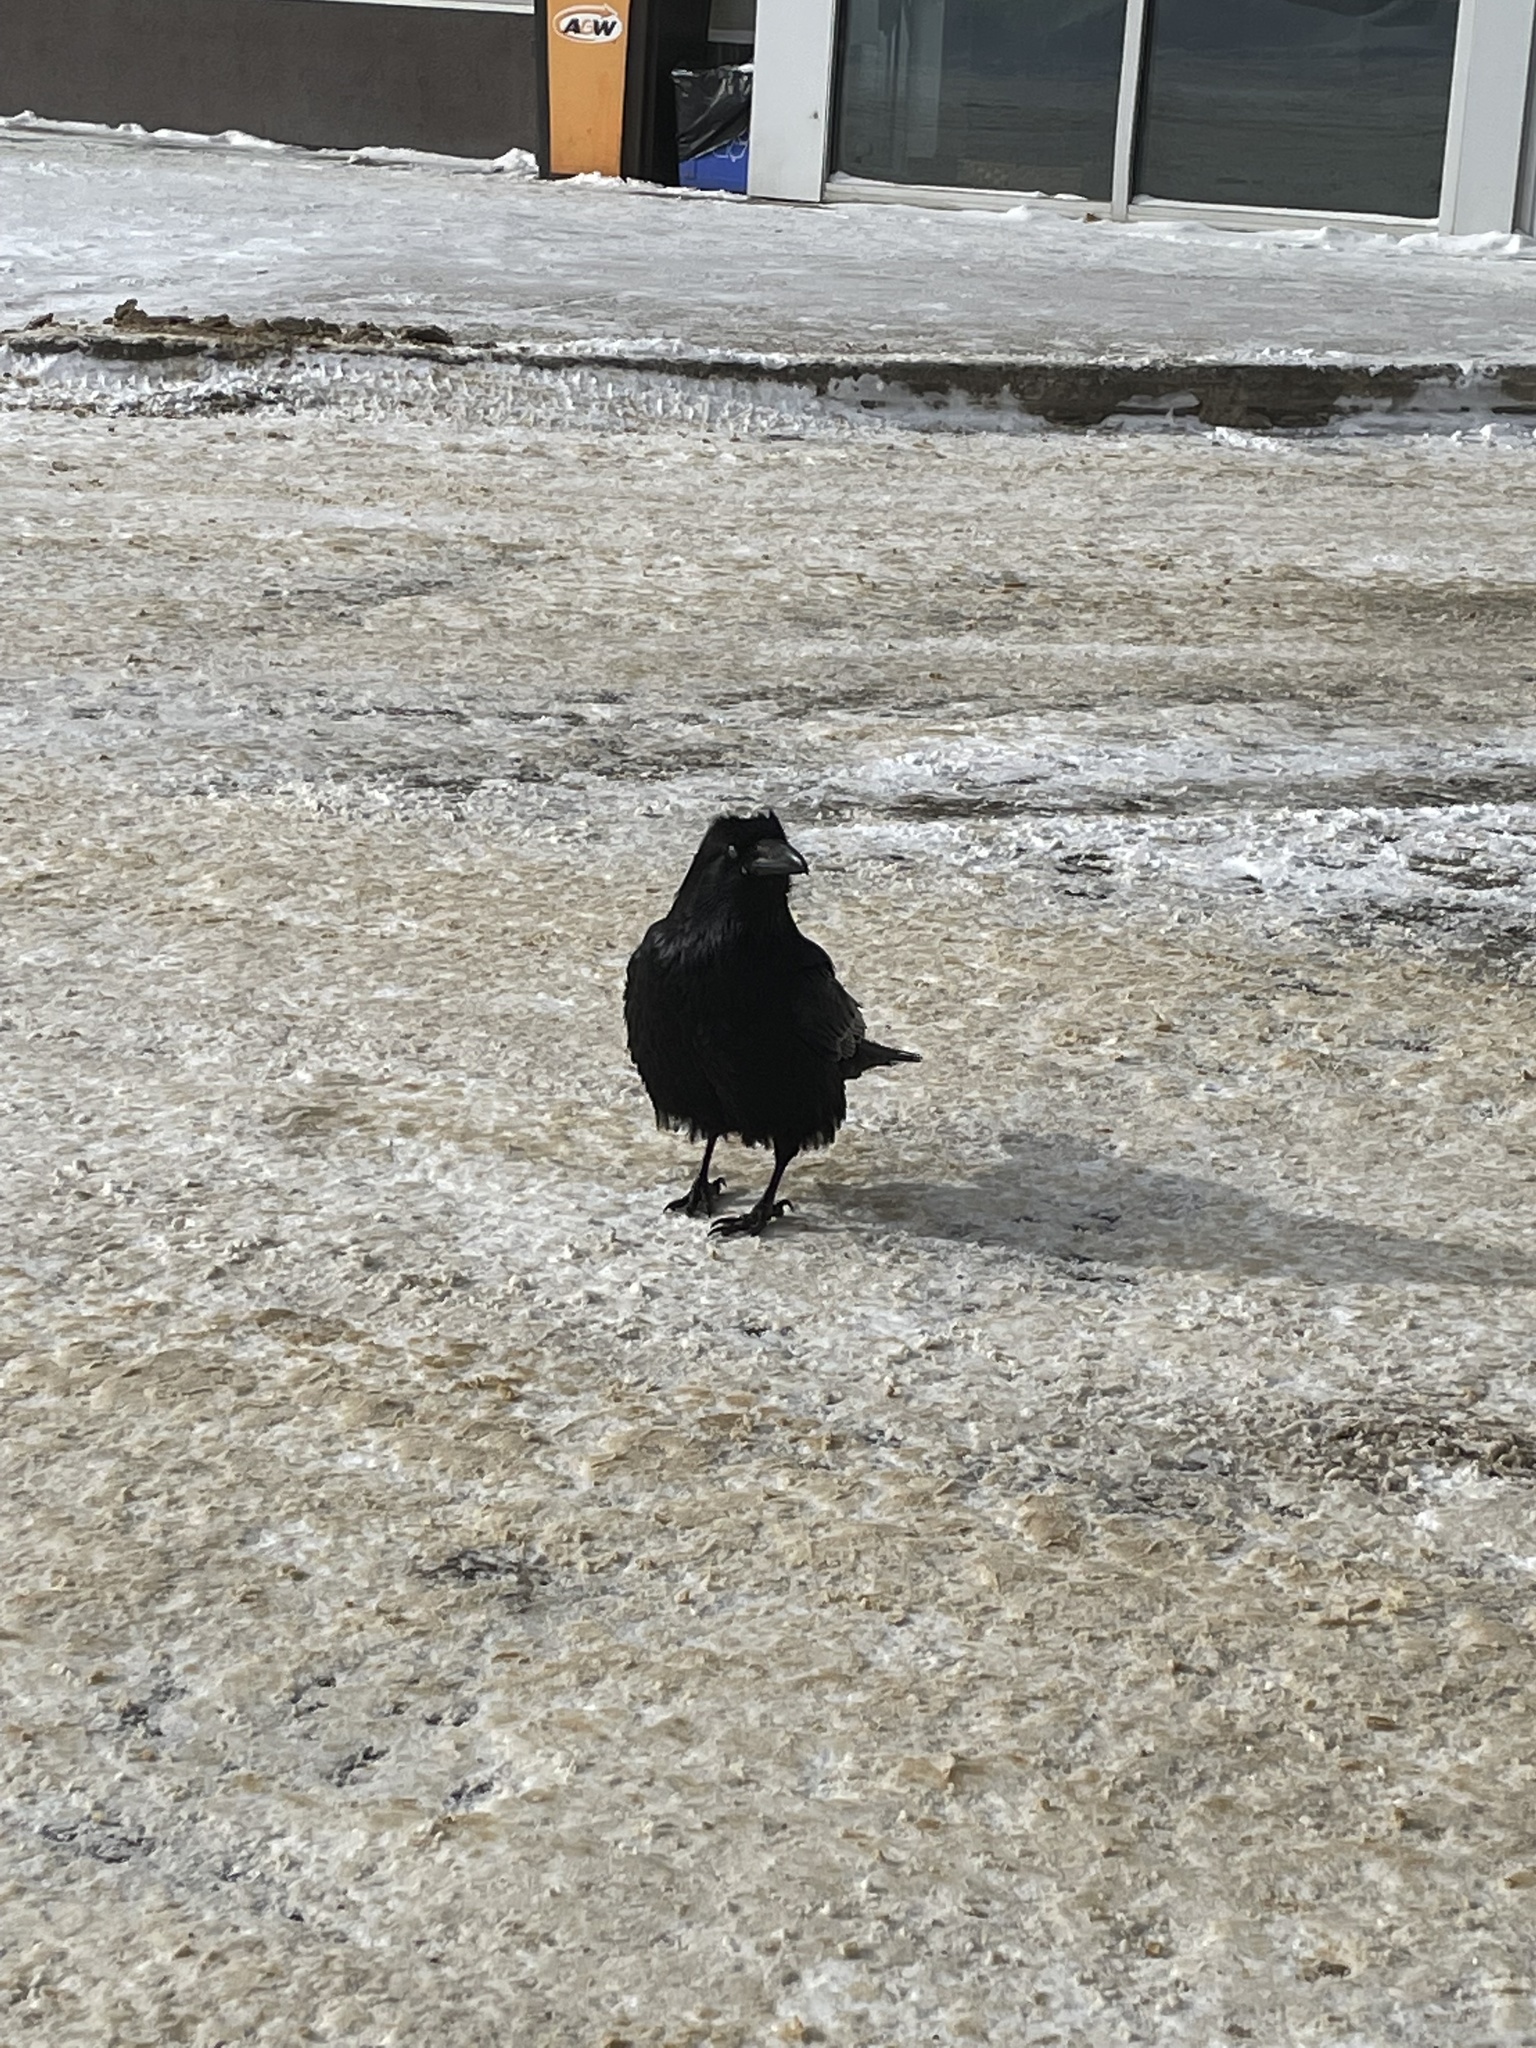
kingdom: Animalia
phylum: Chordata
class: Aves
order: Passeriformes
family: Corvidae
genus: Corvus
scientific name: Corvus corax
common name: Common raven
